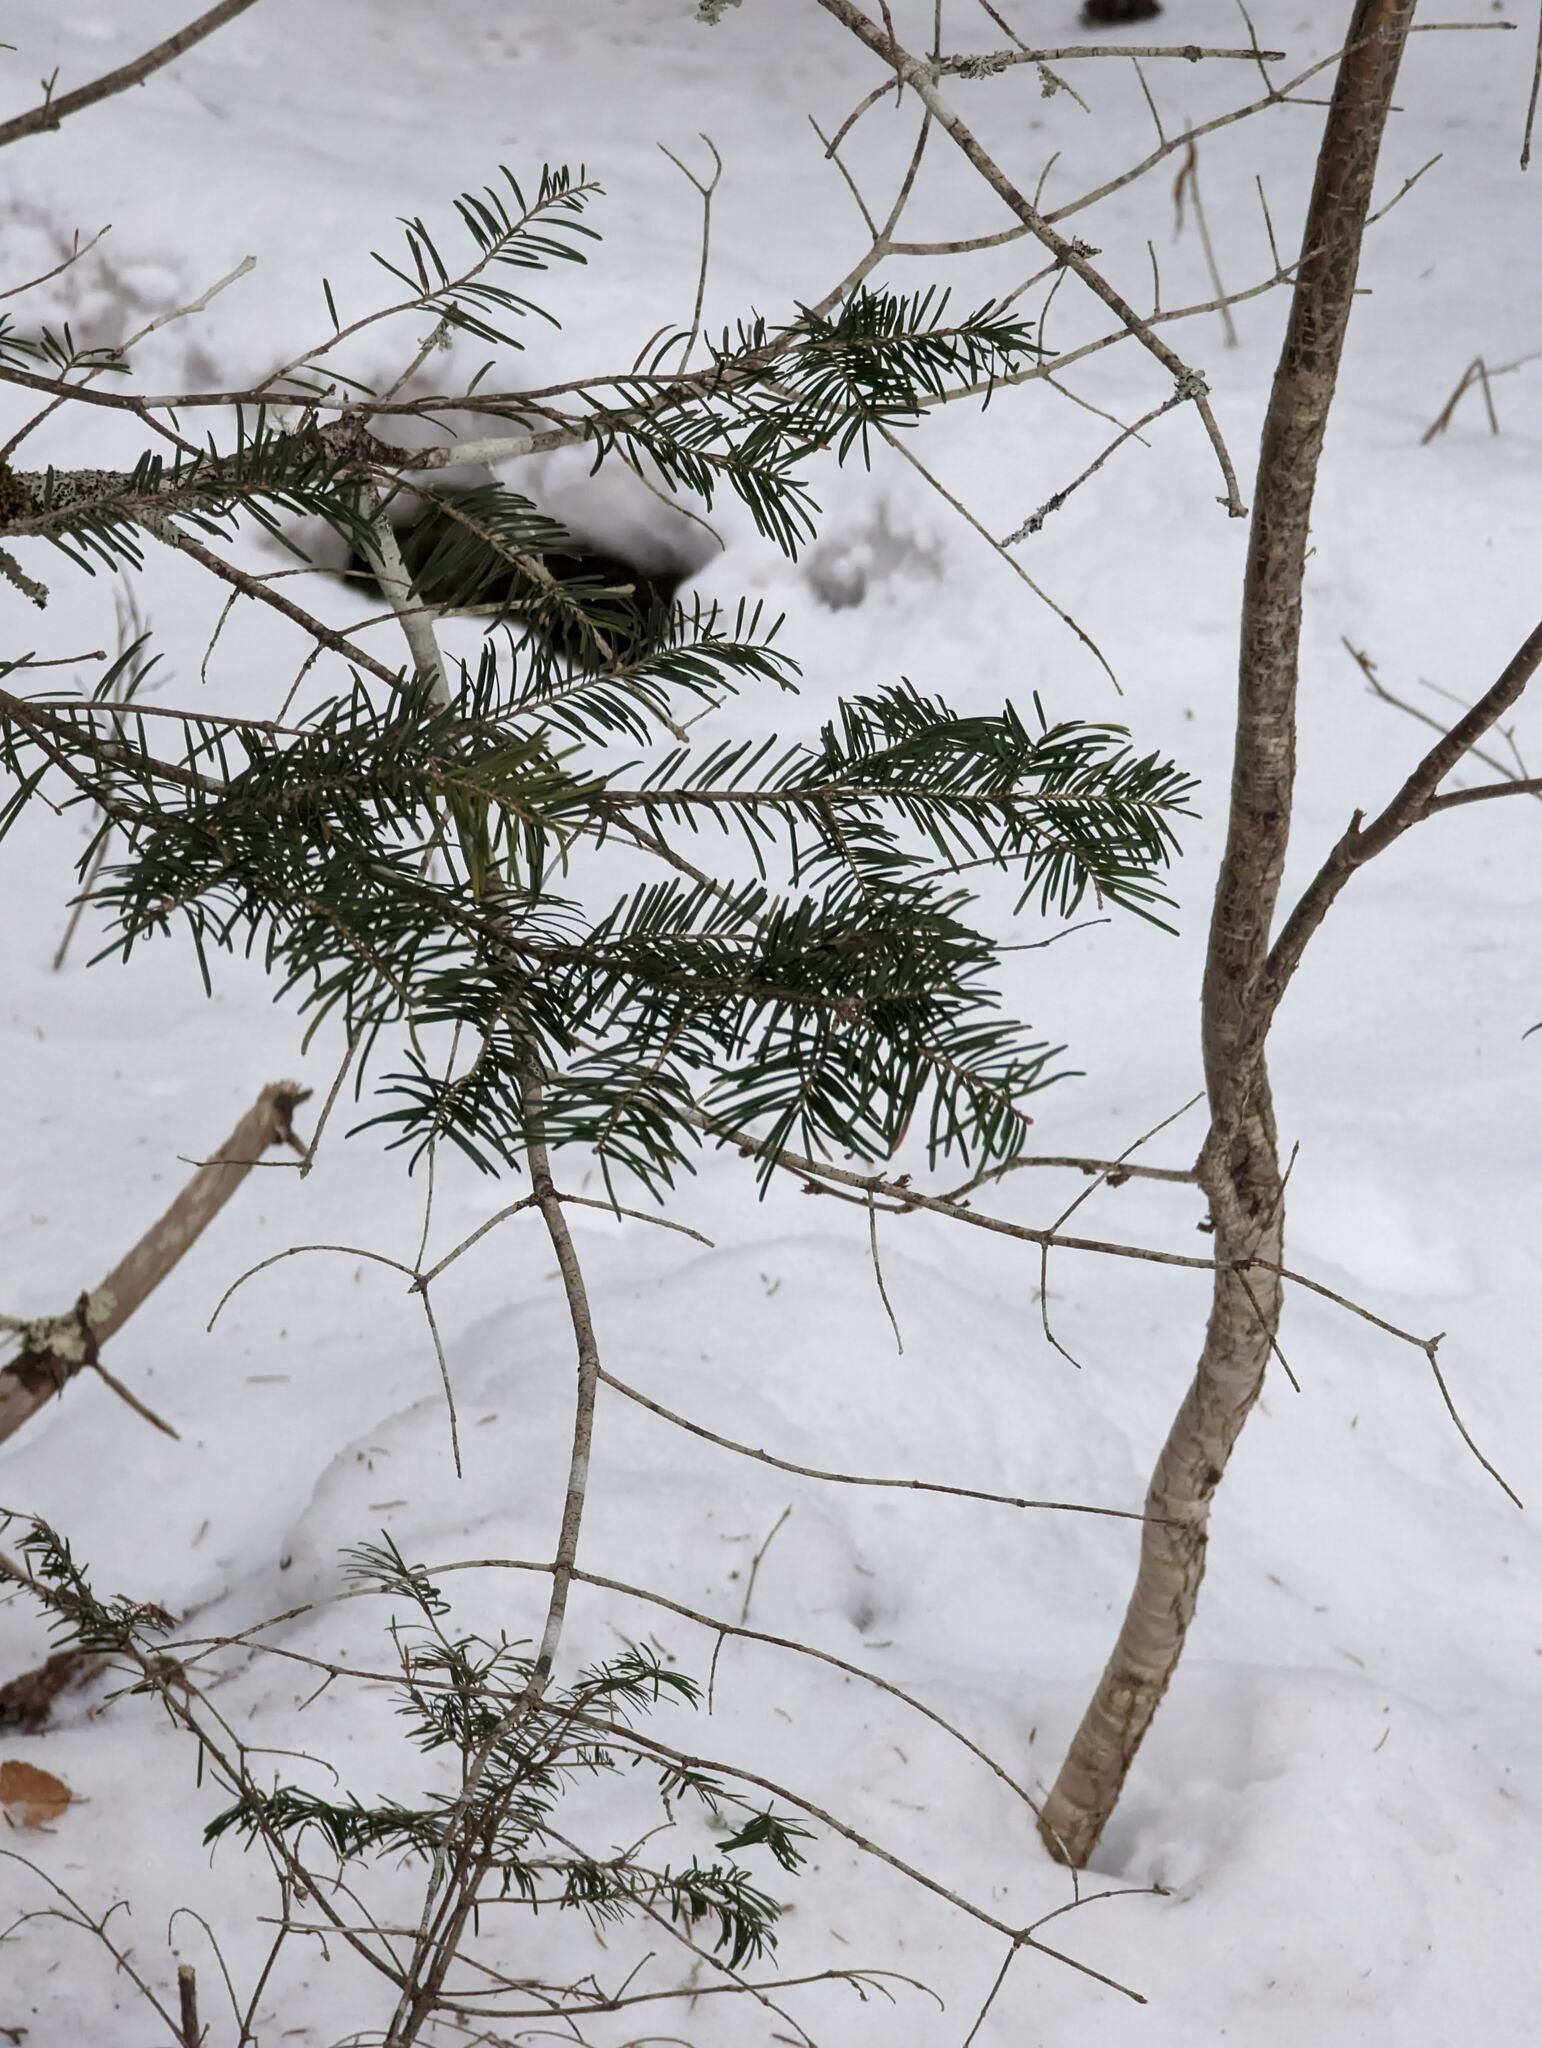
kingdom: Plantae
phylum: Tracheophyta
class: Pinopsida
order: Pinales
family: Pinaceae
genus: Abies
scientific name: Abies balsamea
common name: Balsam fir
